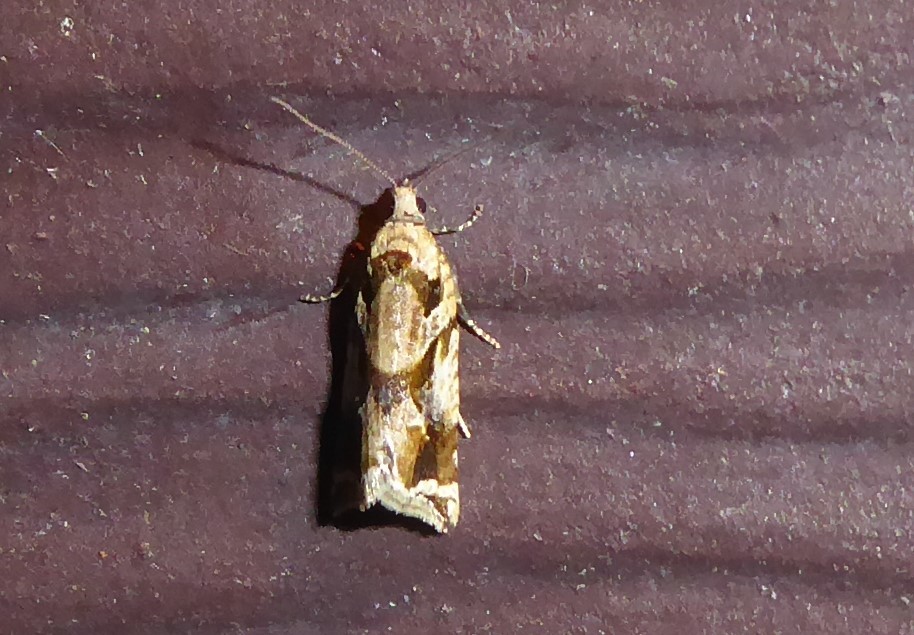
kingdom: Animalia
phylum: Arthropoda
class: Insecta
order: Lepidoptera
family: Tortricidae
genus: Pyrgotis
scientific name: Pyrgotis plagiatana
